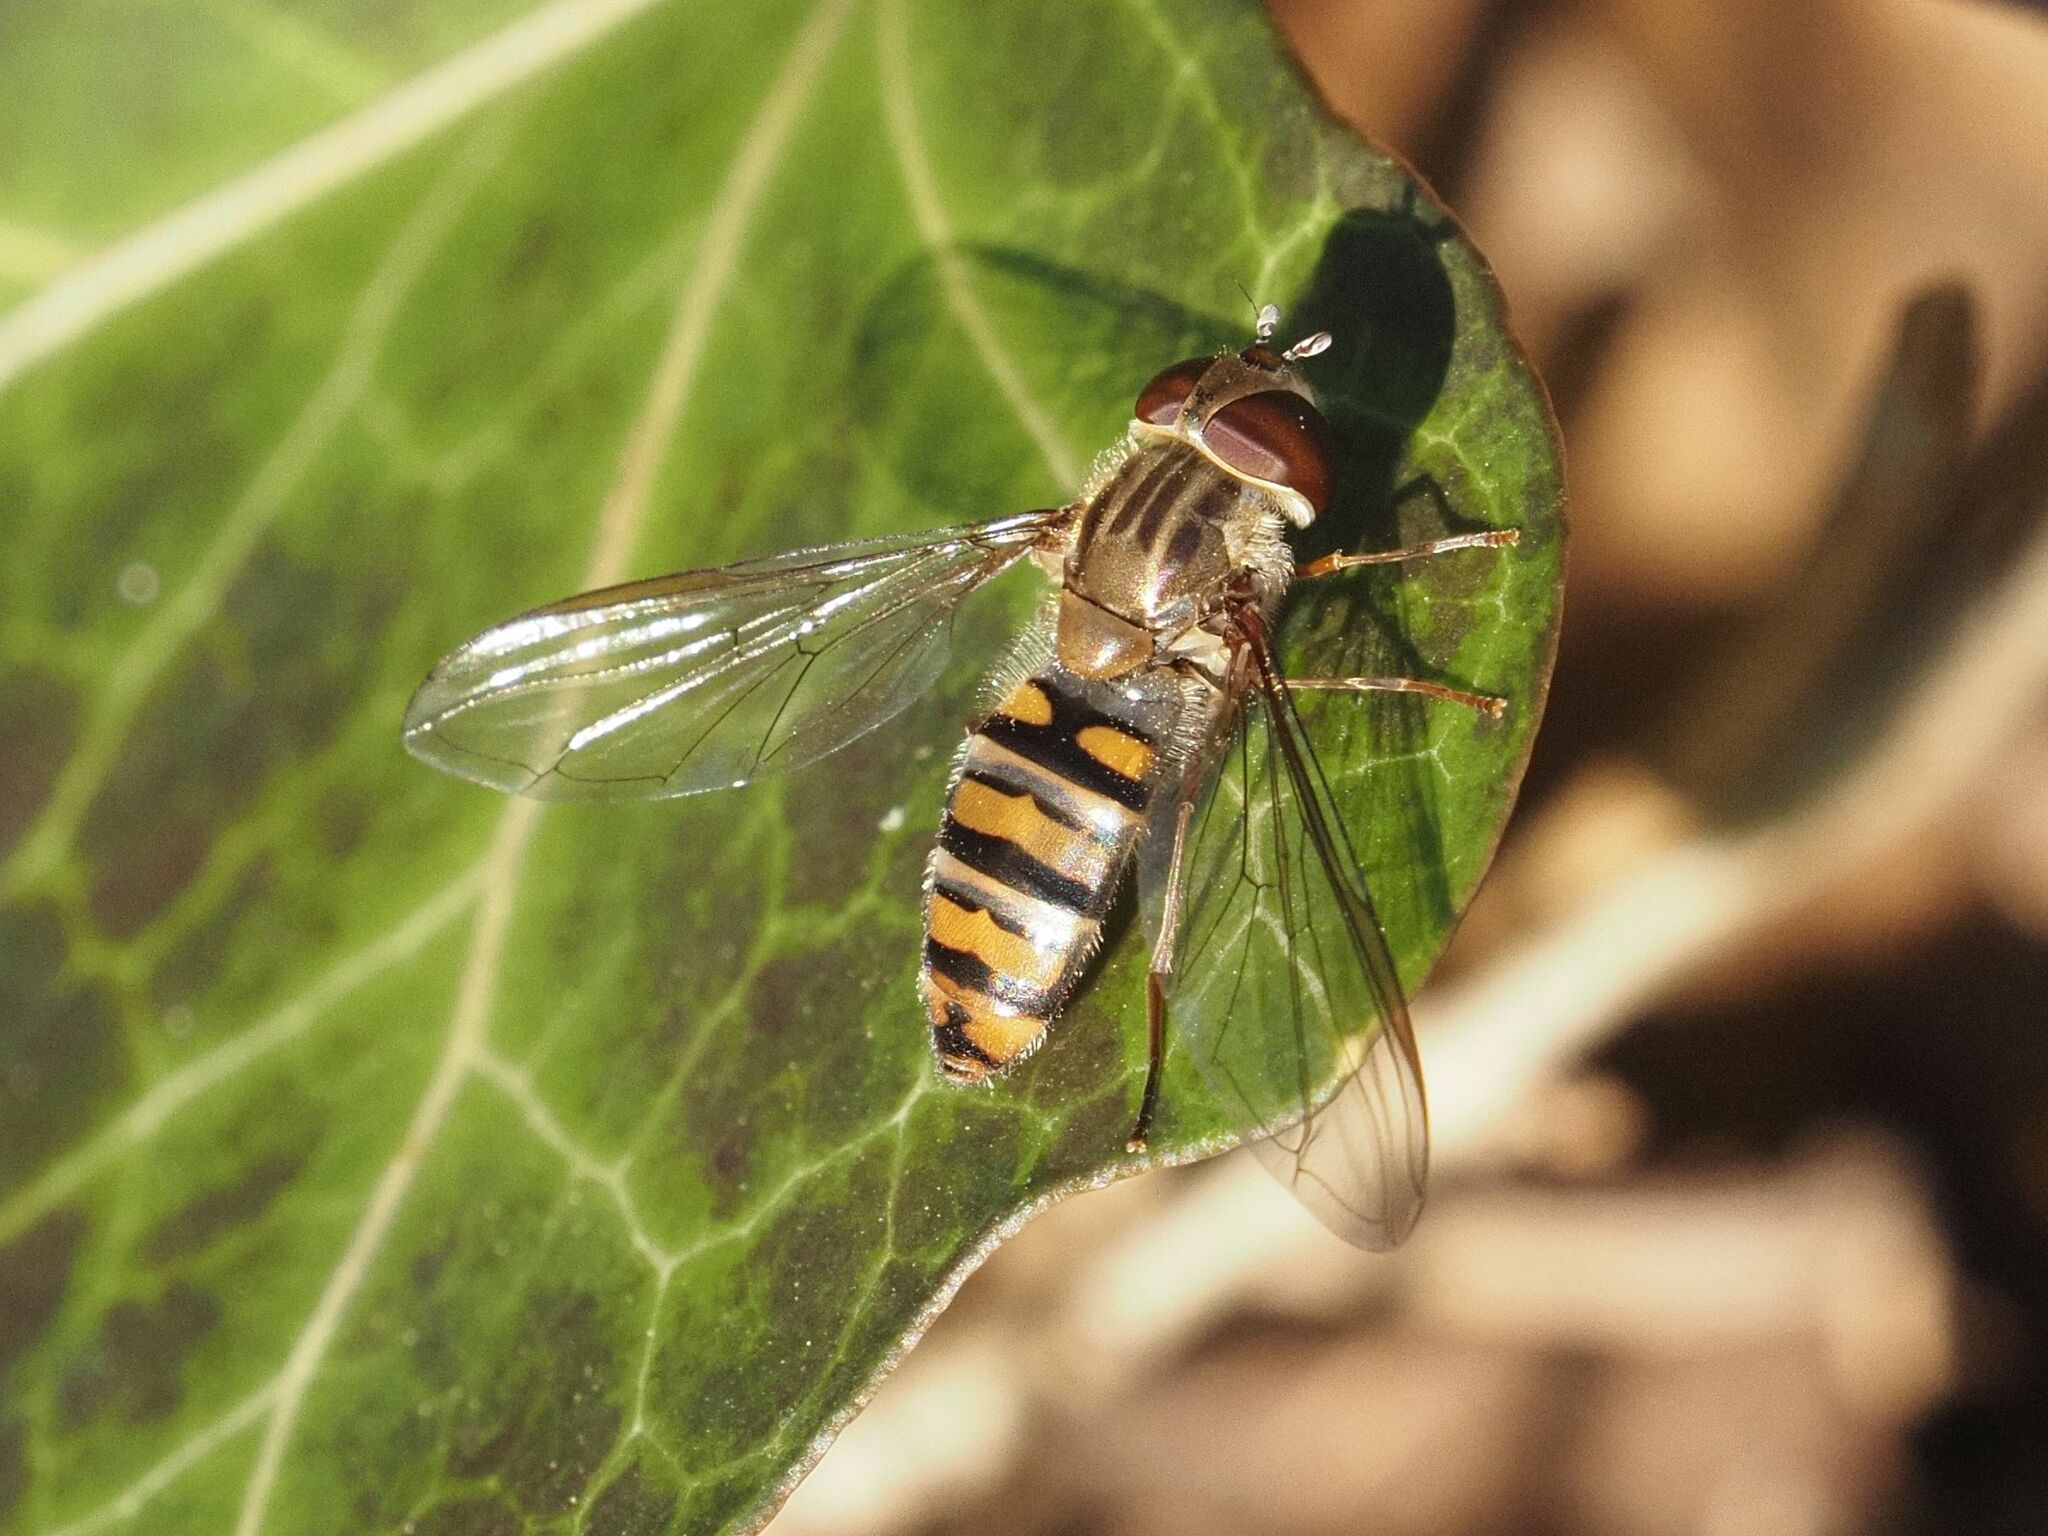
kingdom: Animalia
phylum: Arthropoda
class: Insecta
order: Diptera
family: Syrphidae
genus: Episyrphus
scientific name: Episyrphus balteatus
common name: Marmalade hoverfly
